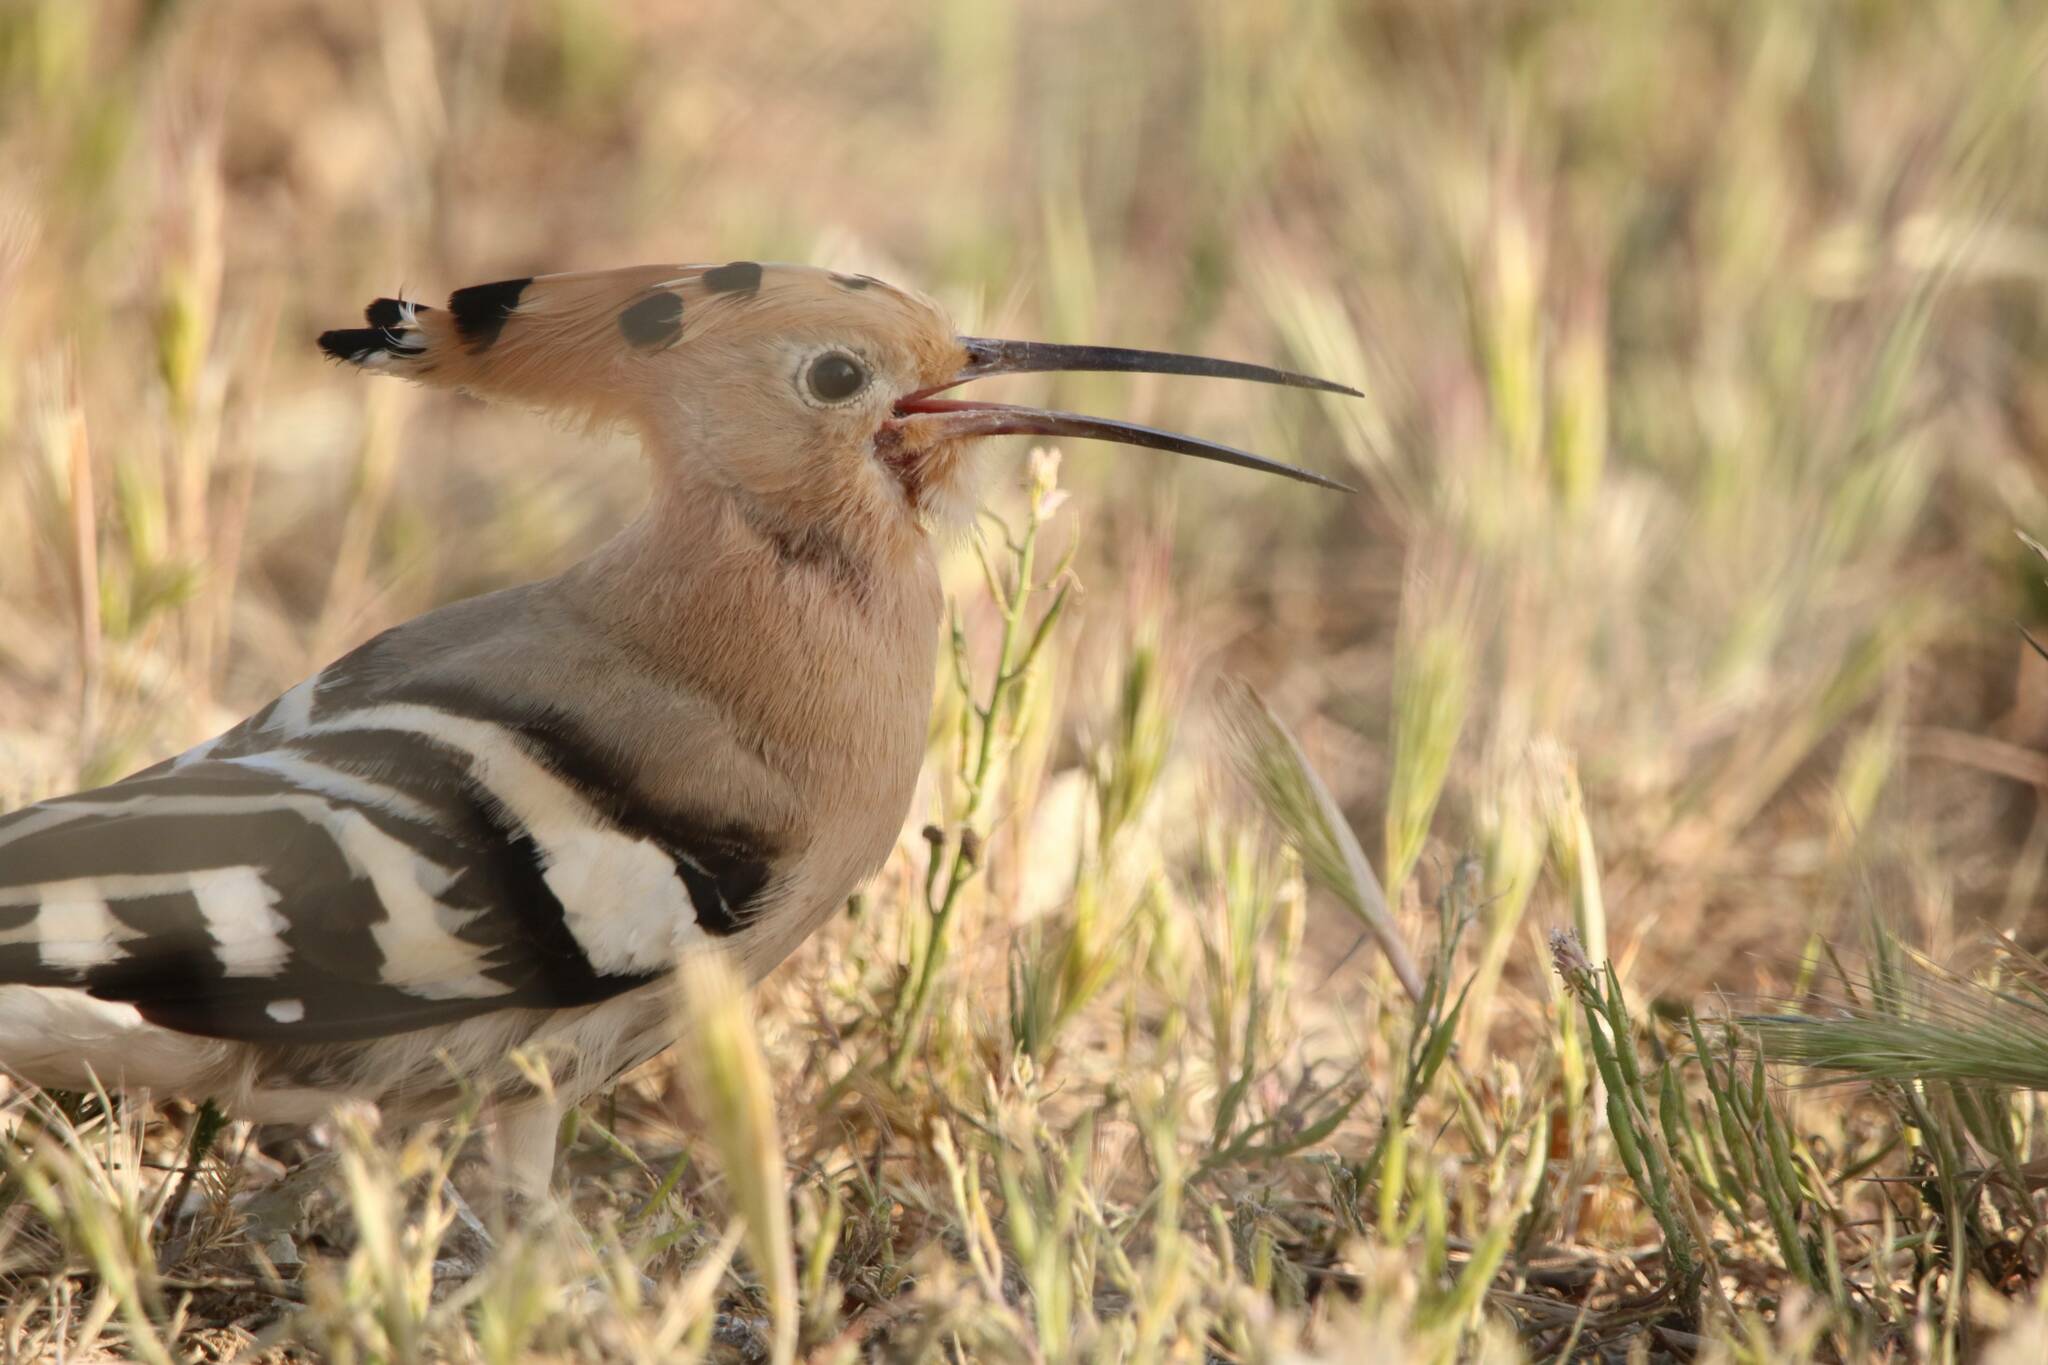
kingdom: Animalia
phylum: Chordata
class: Aves
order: Bucerotiformes
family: Upupidae
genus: Upupa
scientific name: Upupa epops
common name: Eurasian hoopoe
